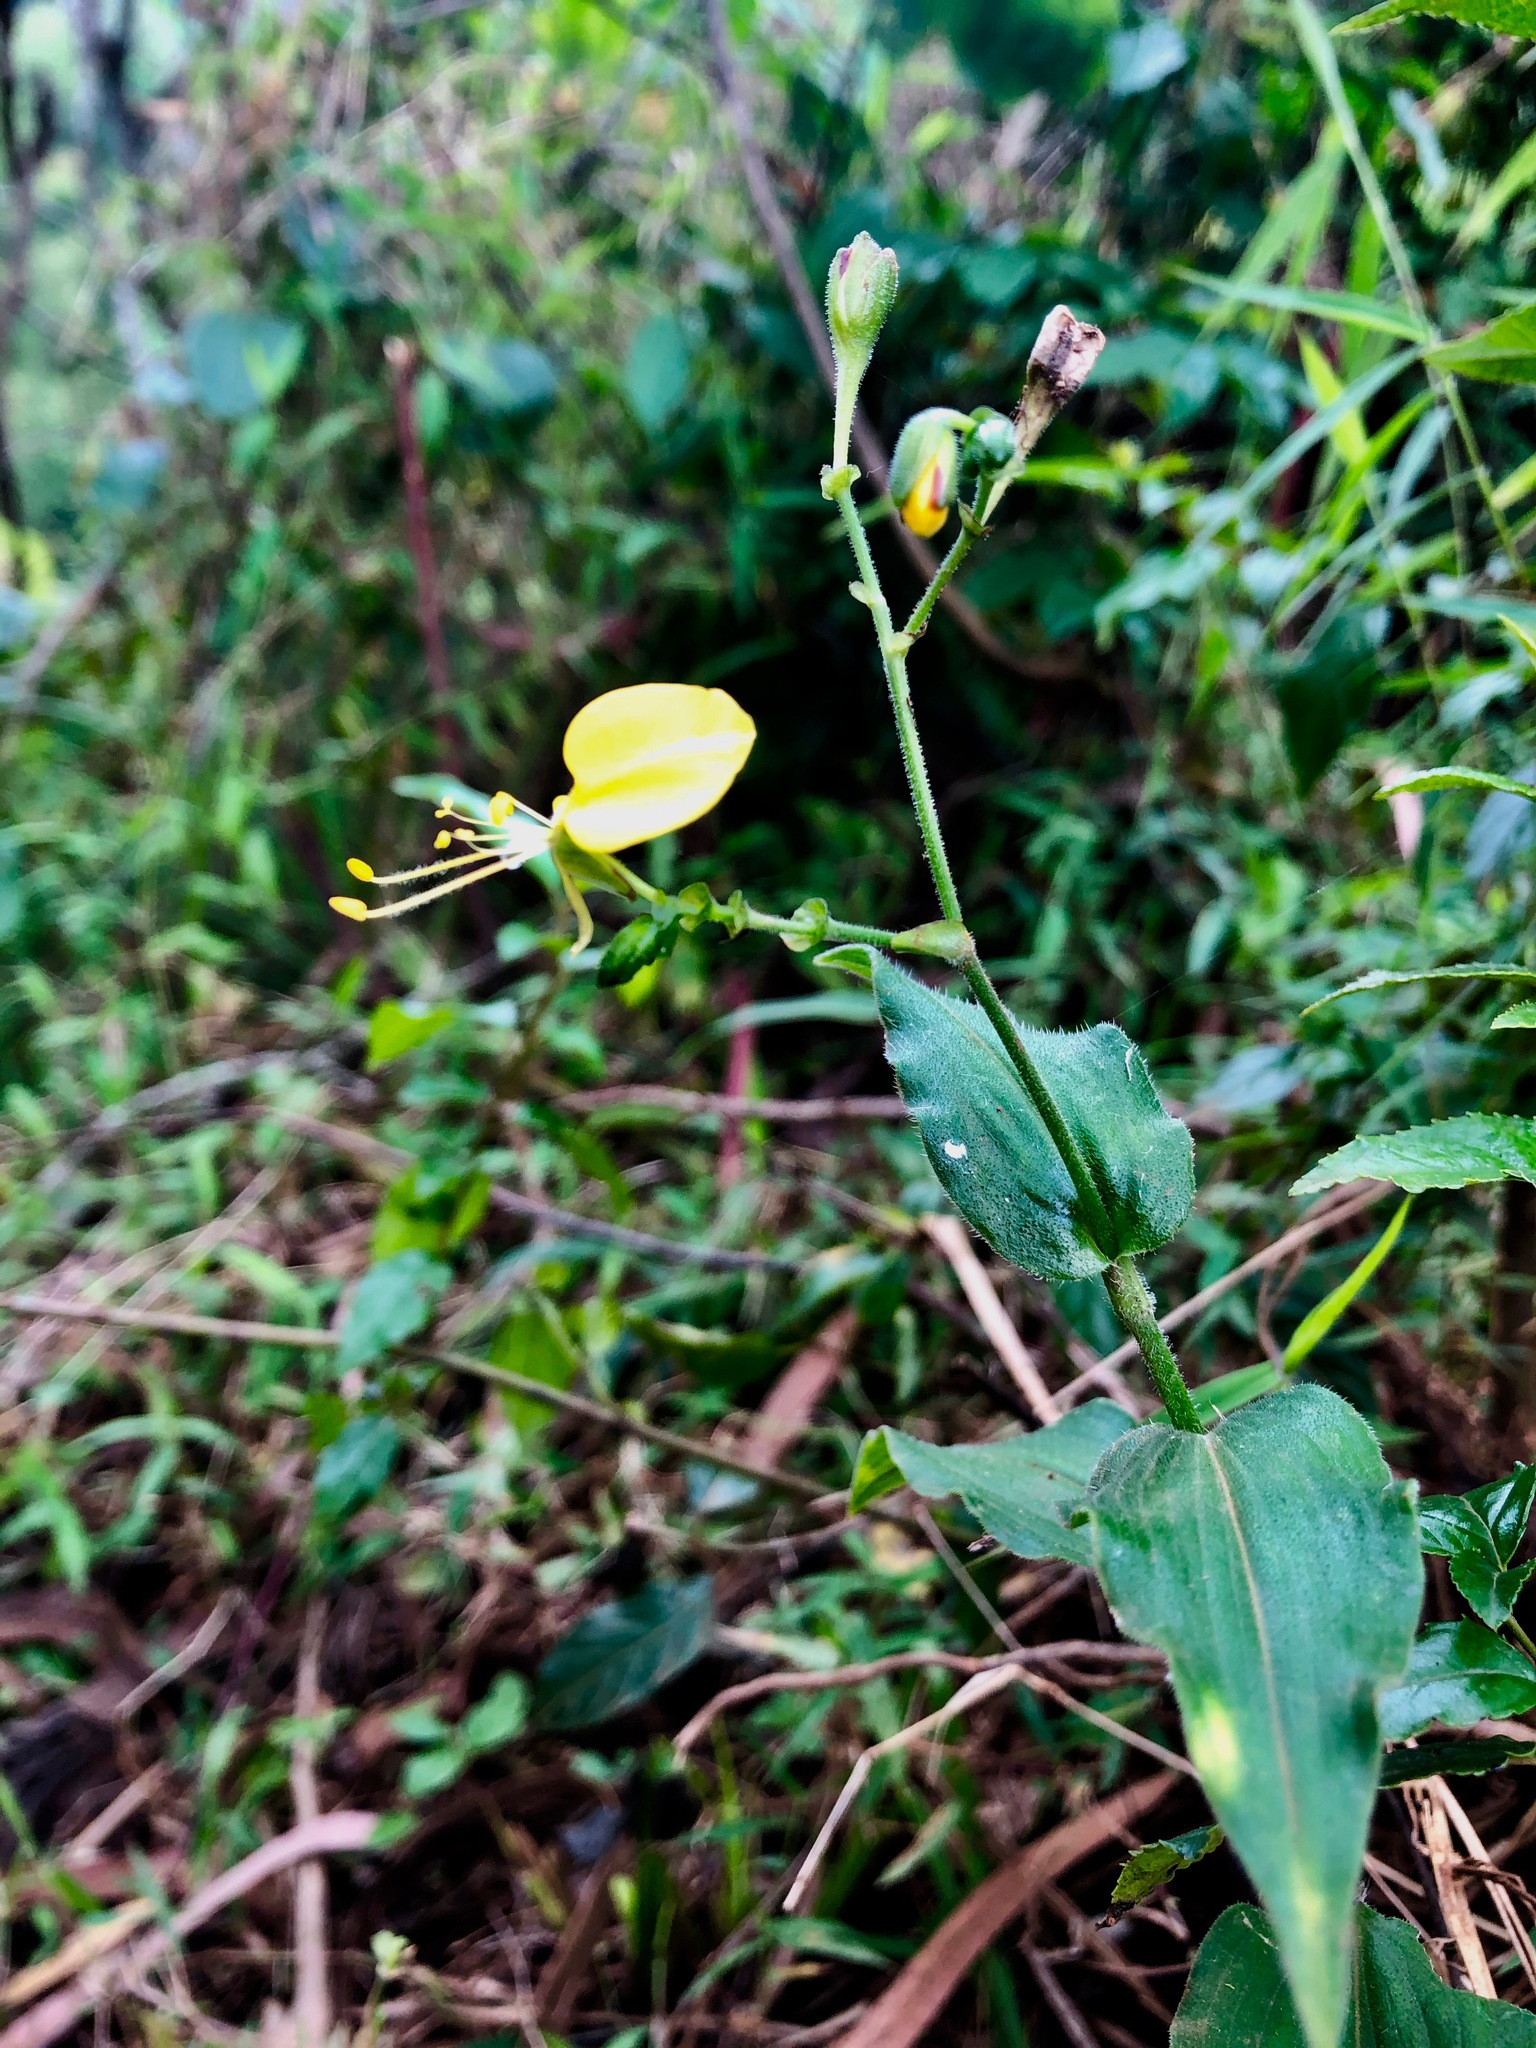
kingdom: Plantae
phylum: Tracheophyta
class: Liliopsida
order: Commelinales
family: Commelinaceae
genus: Aneilema
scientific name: Aneilema aequinoctiale
